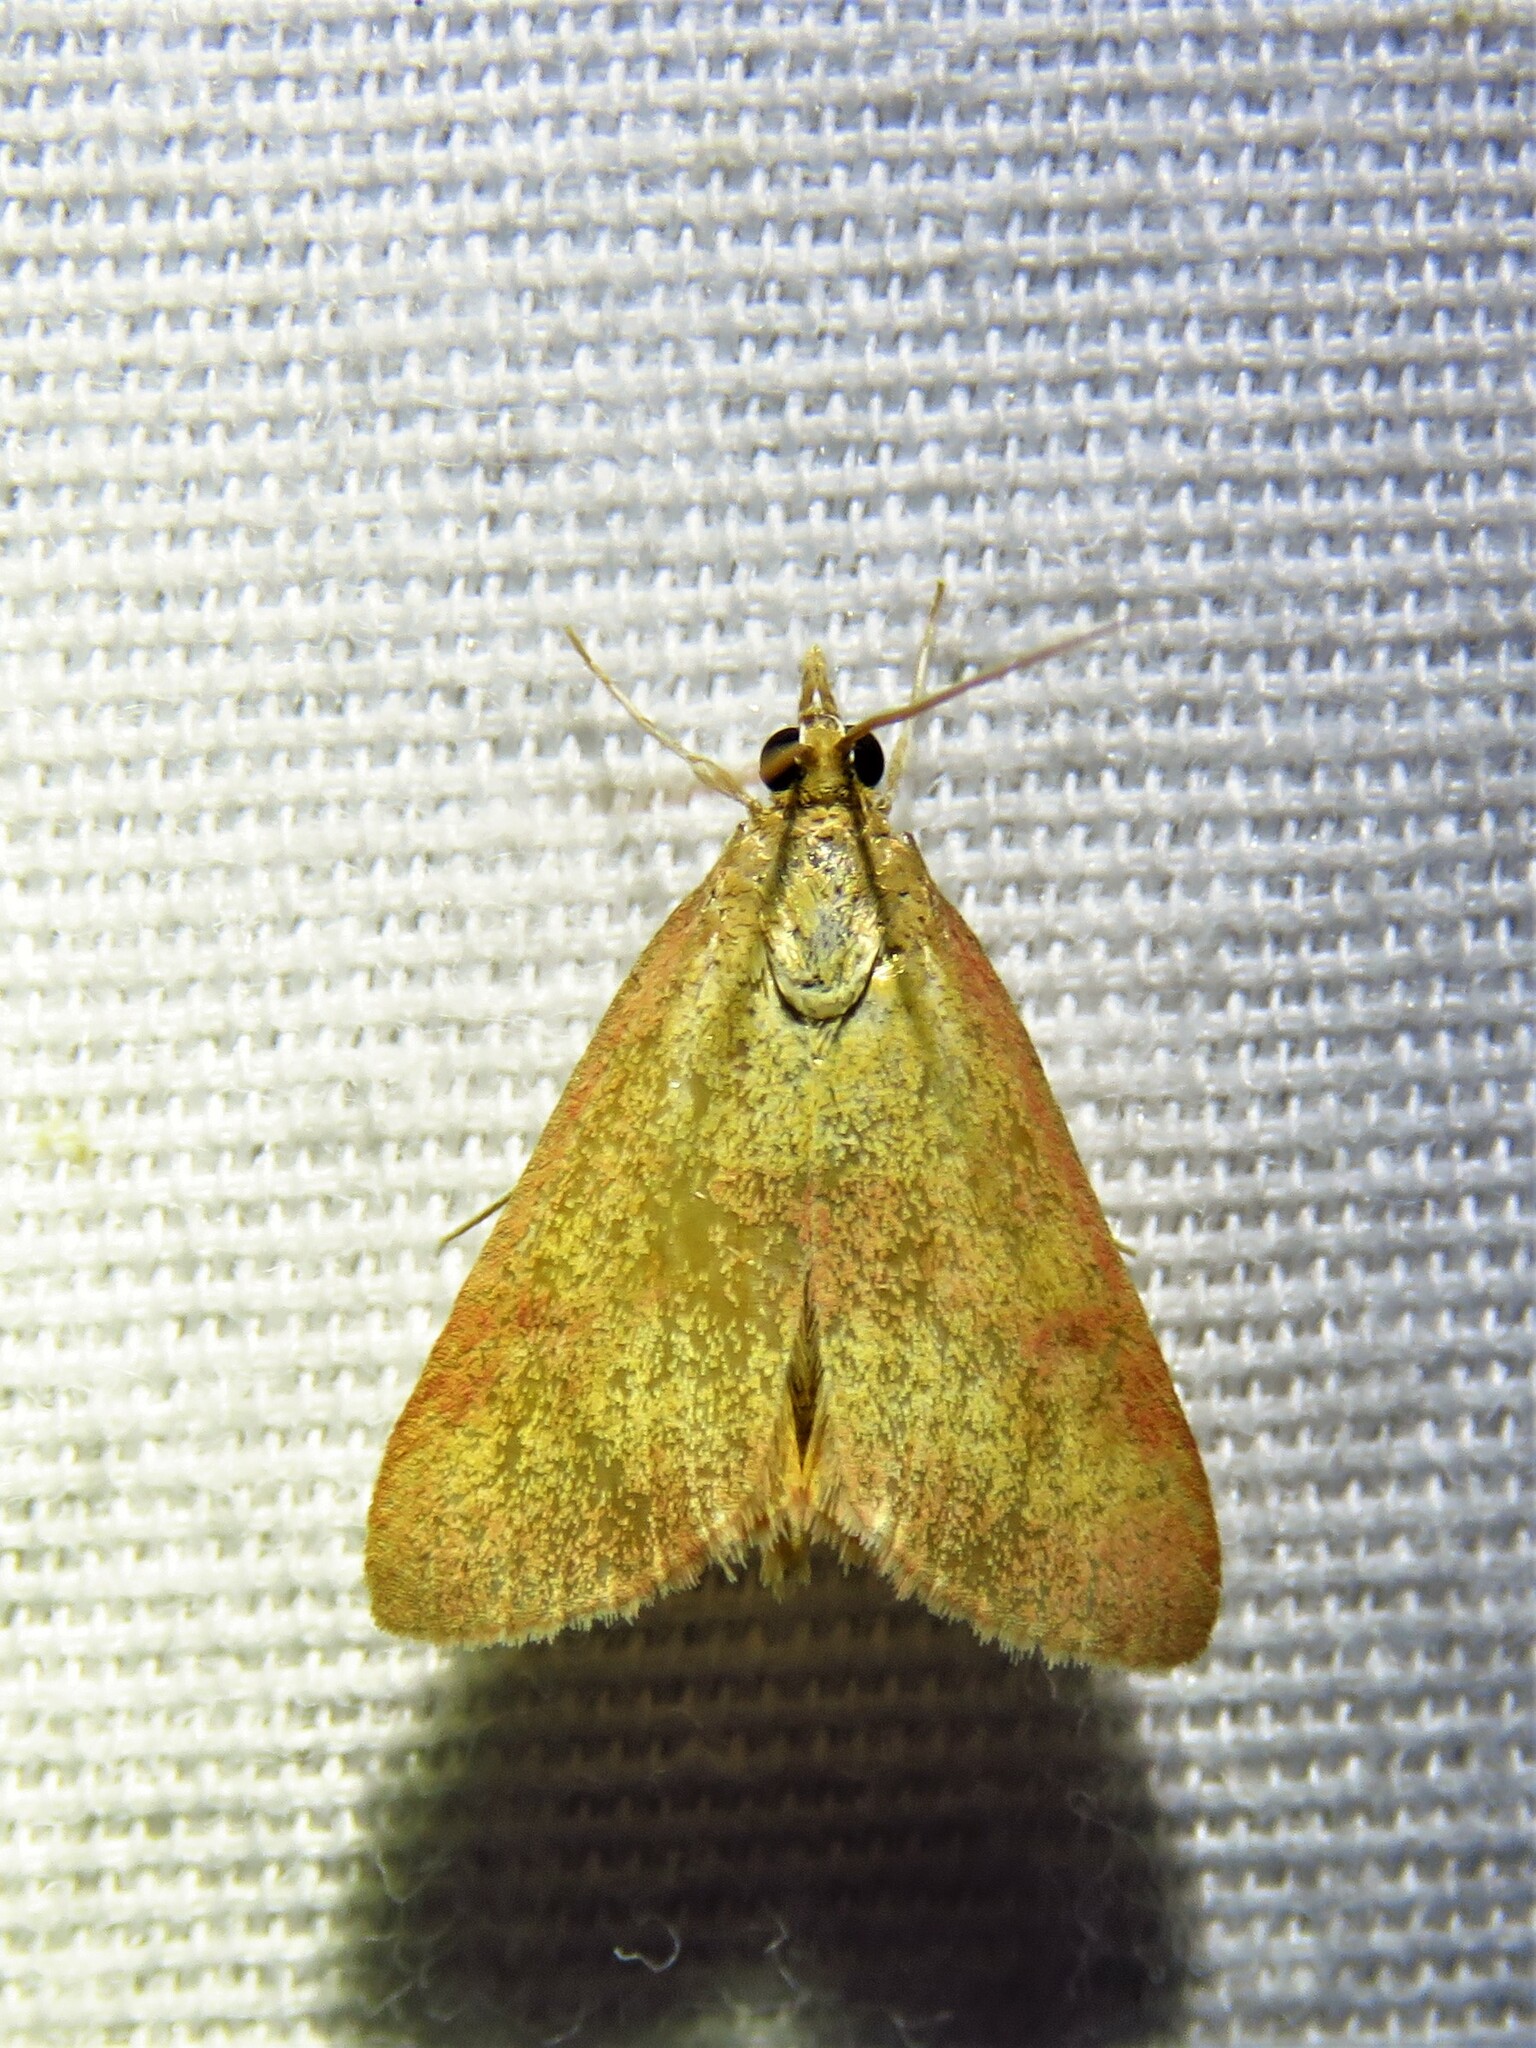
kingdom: Animalia
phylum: Arthropoda
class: Insecta
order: Lepidoptera
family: Crambidae
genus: Pyrausta
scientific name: Pyrausta laticlavia
